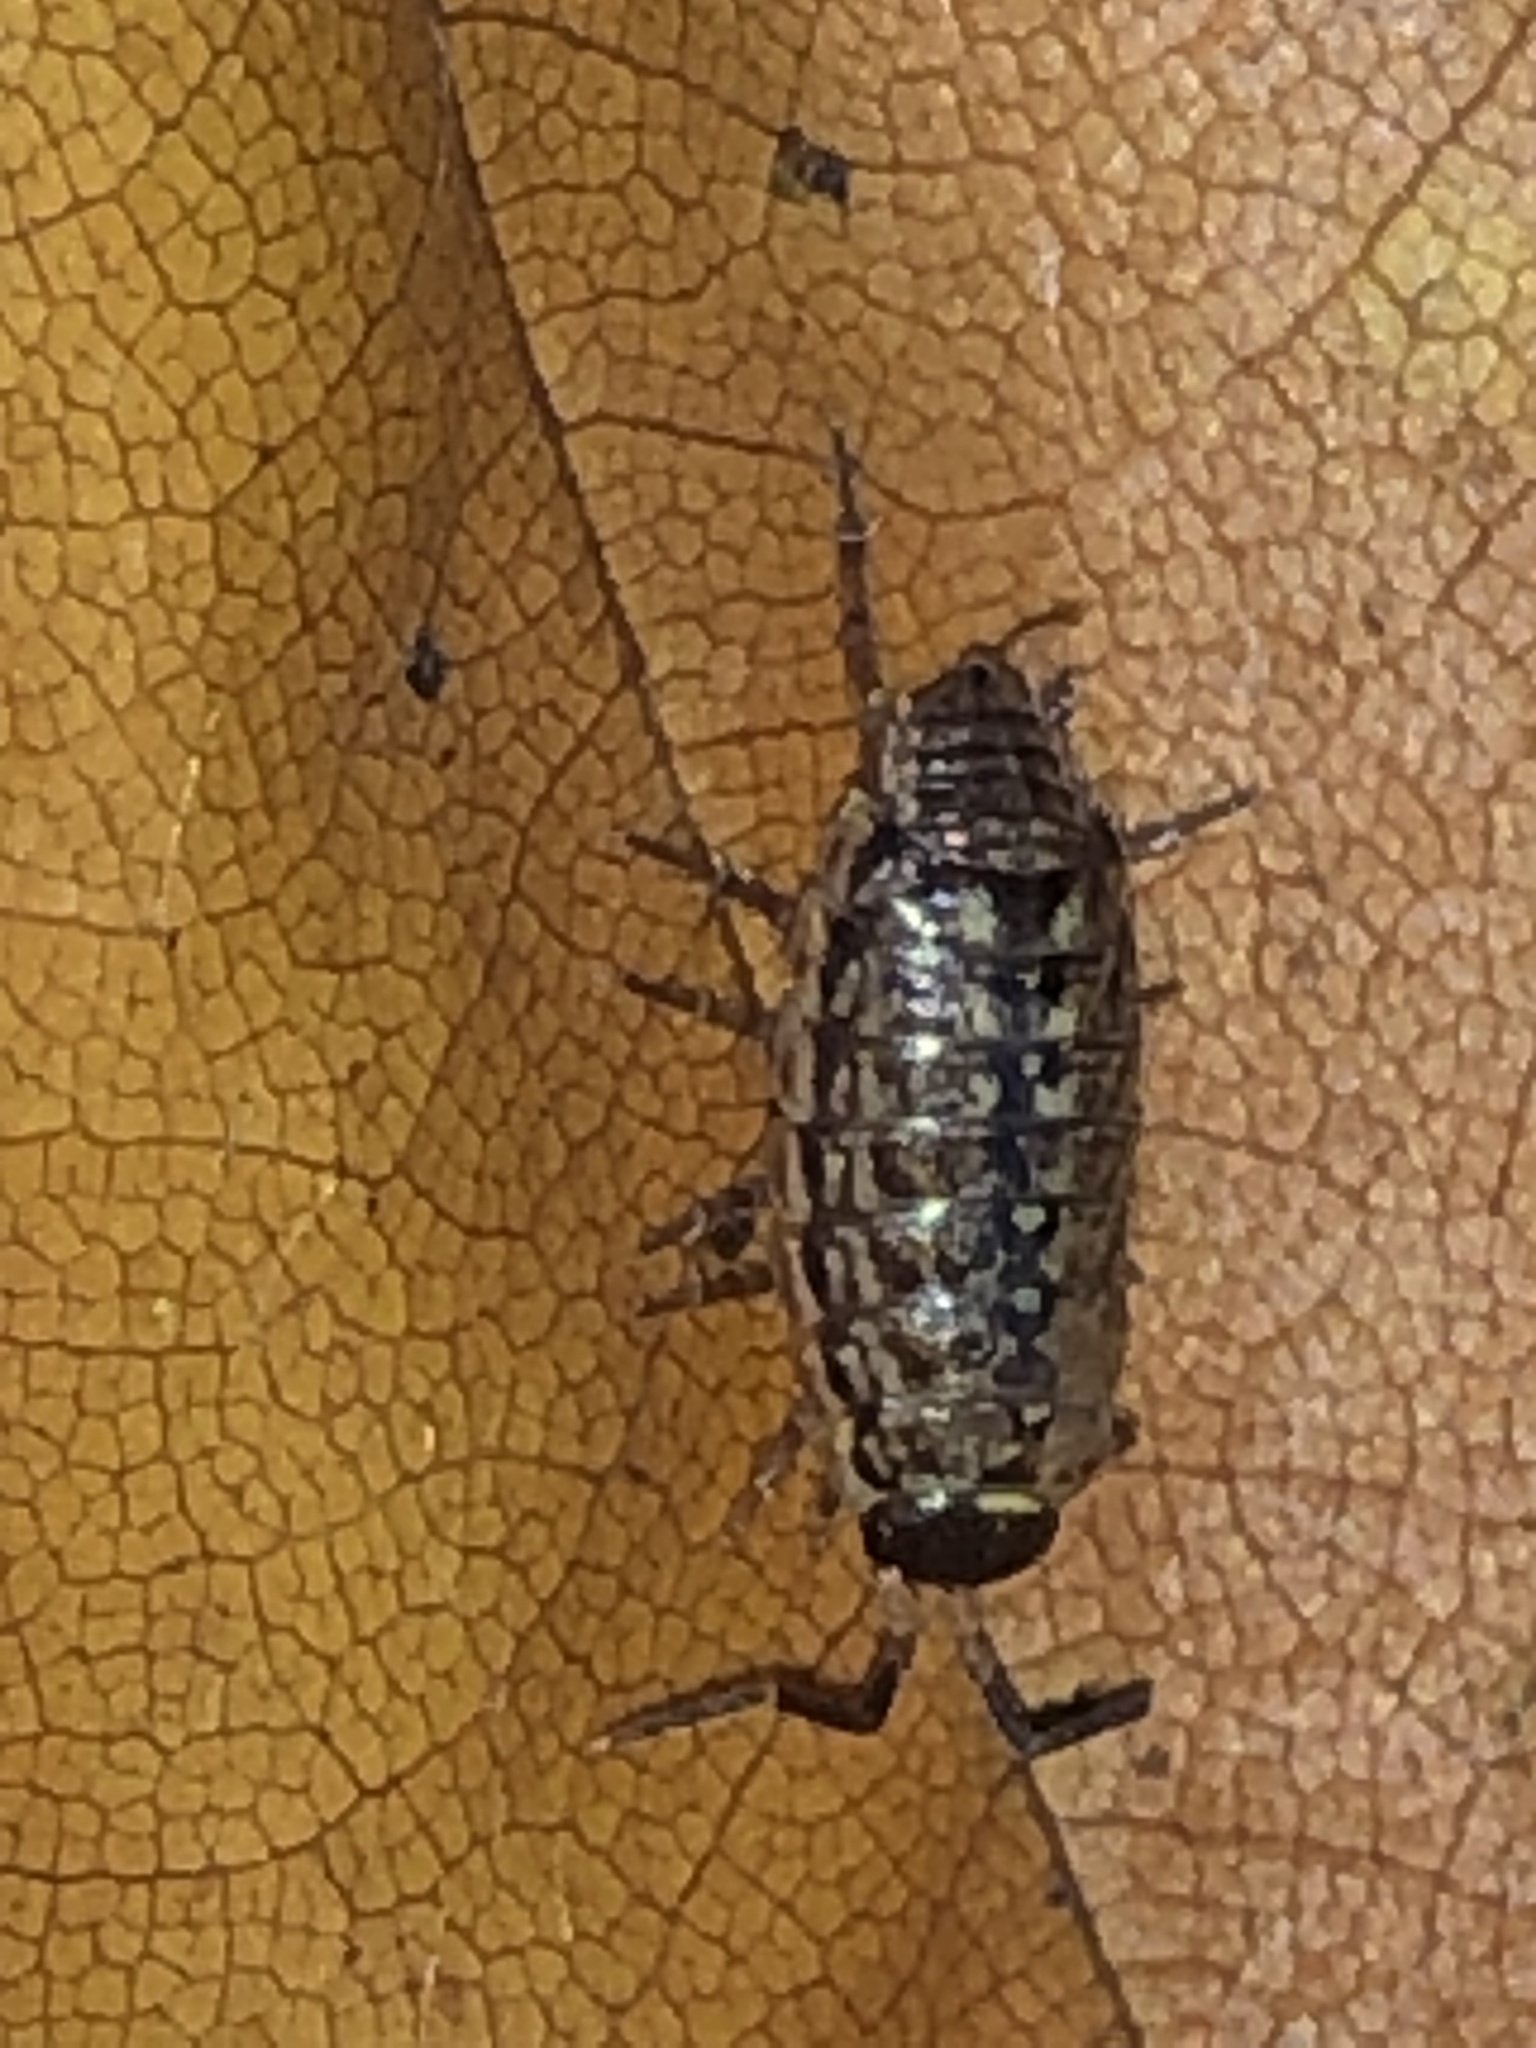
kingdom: Animalia
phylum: Arthropoda
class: Malacostraca
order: Isopoda
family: Philosciidae
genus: Philoscia
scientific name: Philoscia muscorum
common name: Common striped woodlouse
